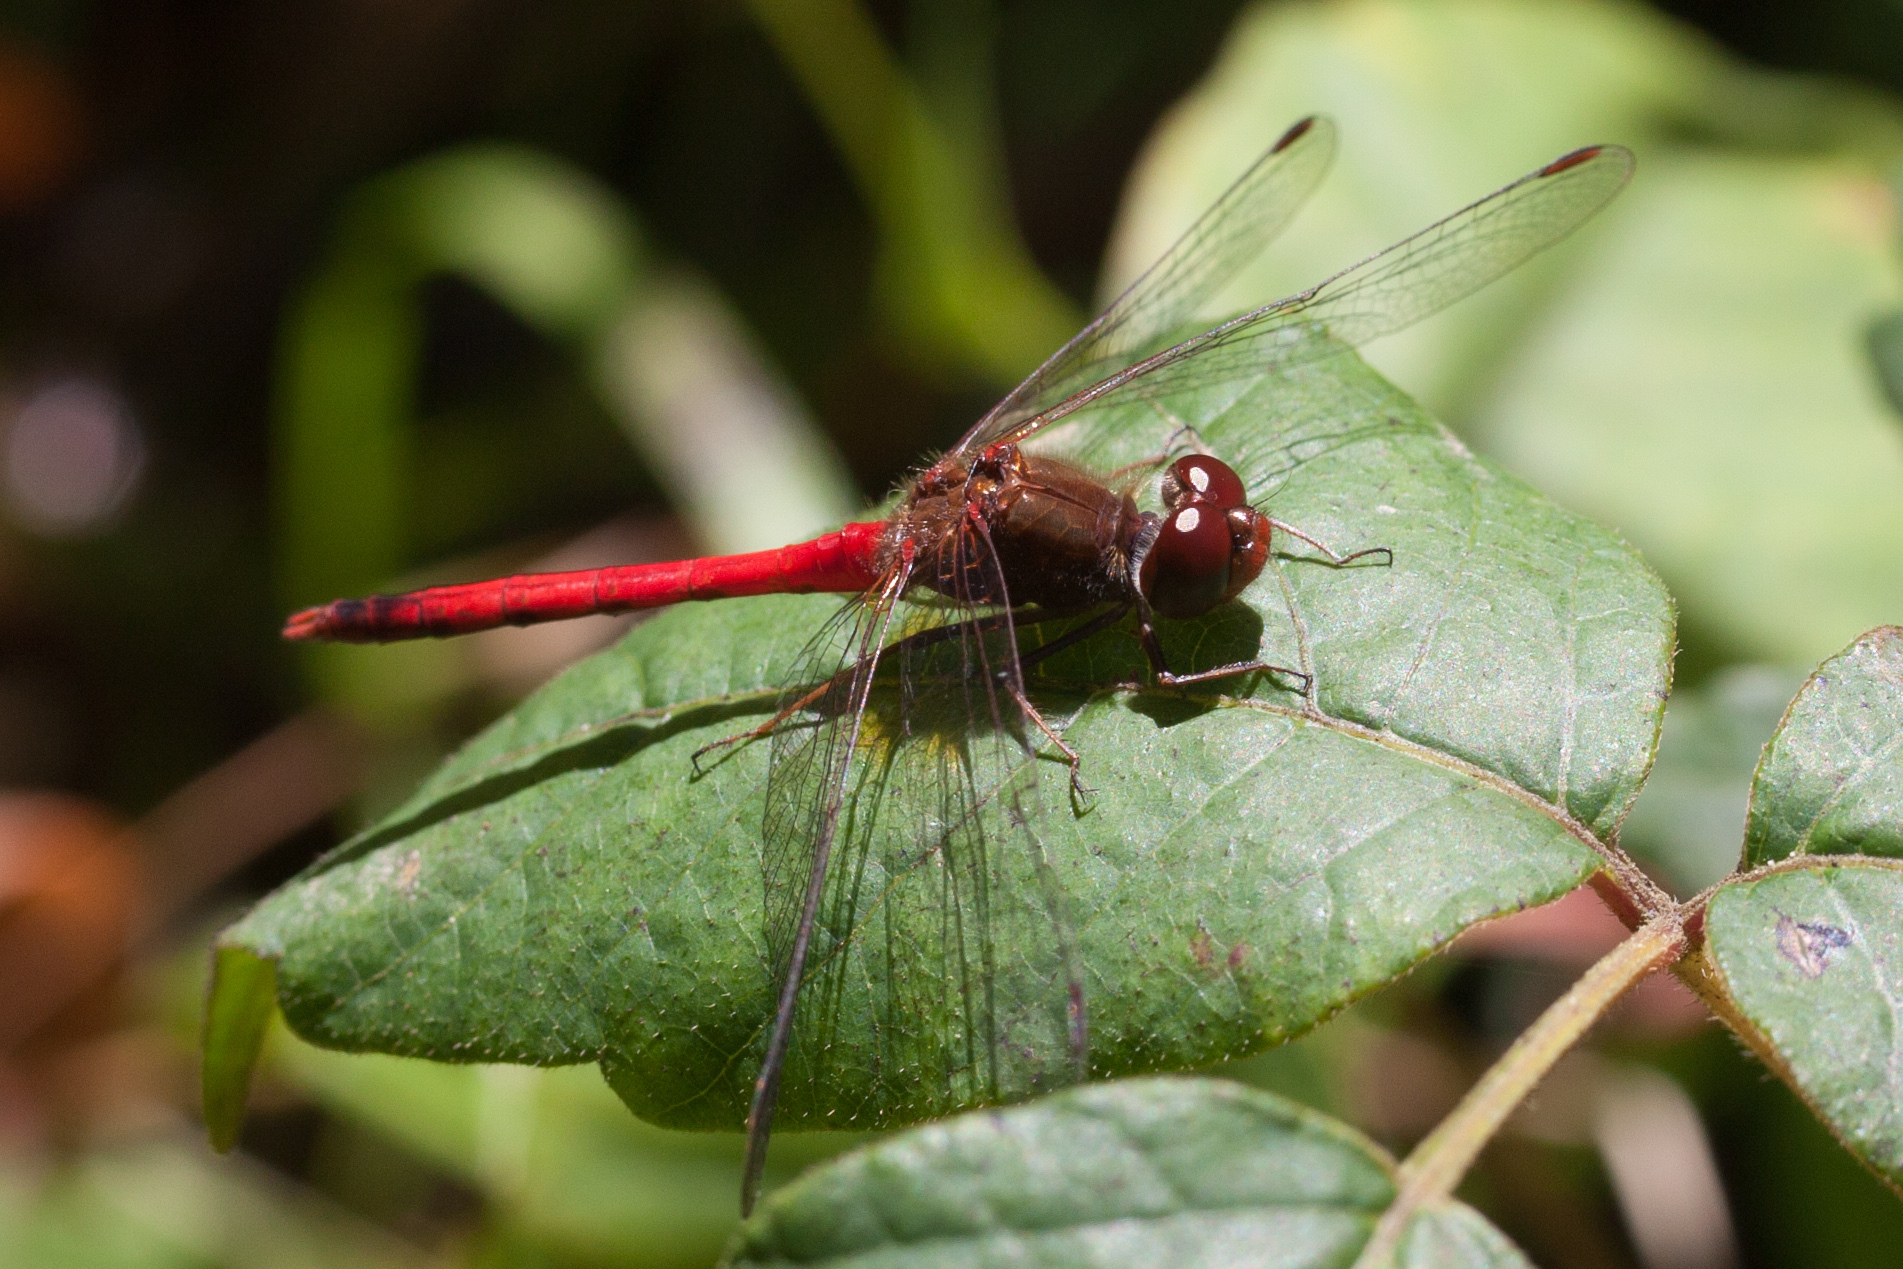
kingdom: Animalia
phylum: Arthropoda
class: Insecta
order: Odonata
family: Libellulidae
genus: Sympetrum
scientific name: Sympetrum vicinum
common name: Autumn meadowhawk
